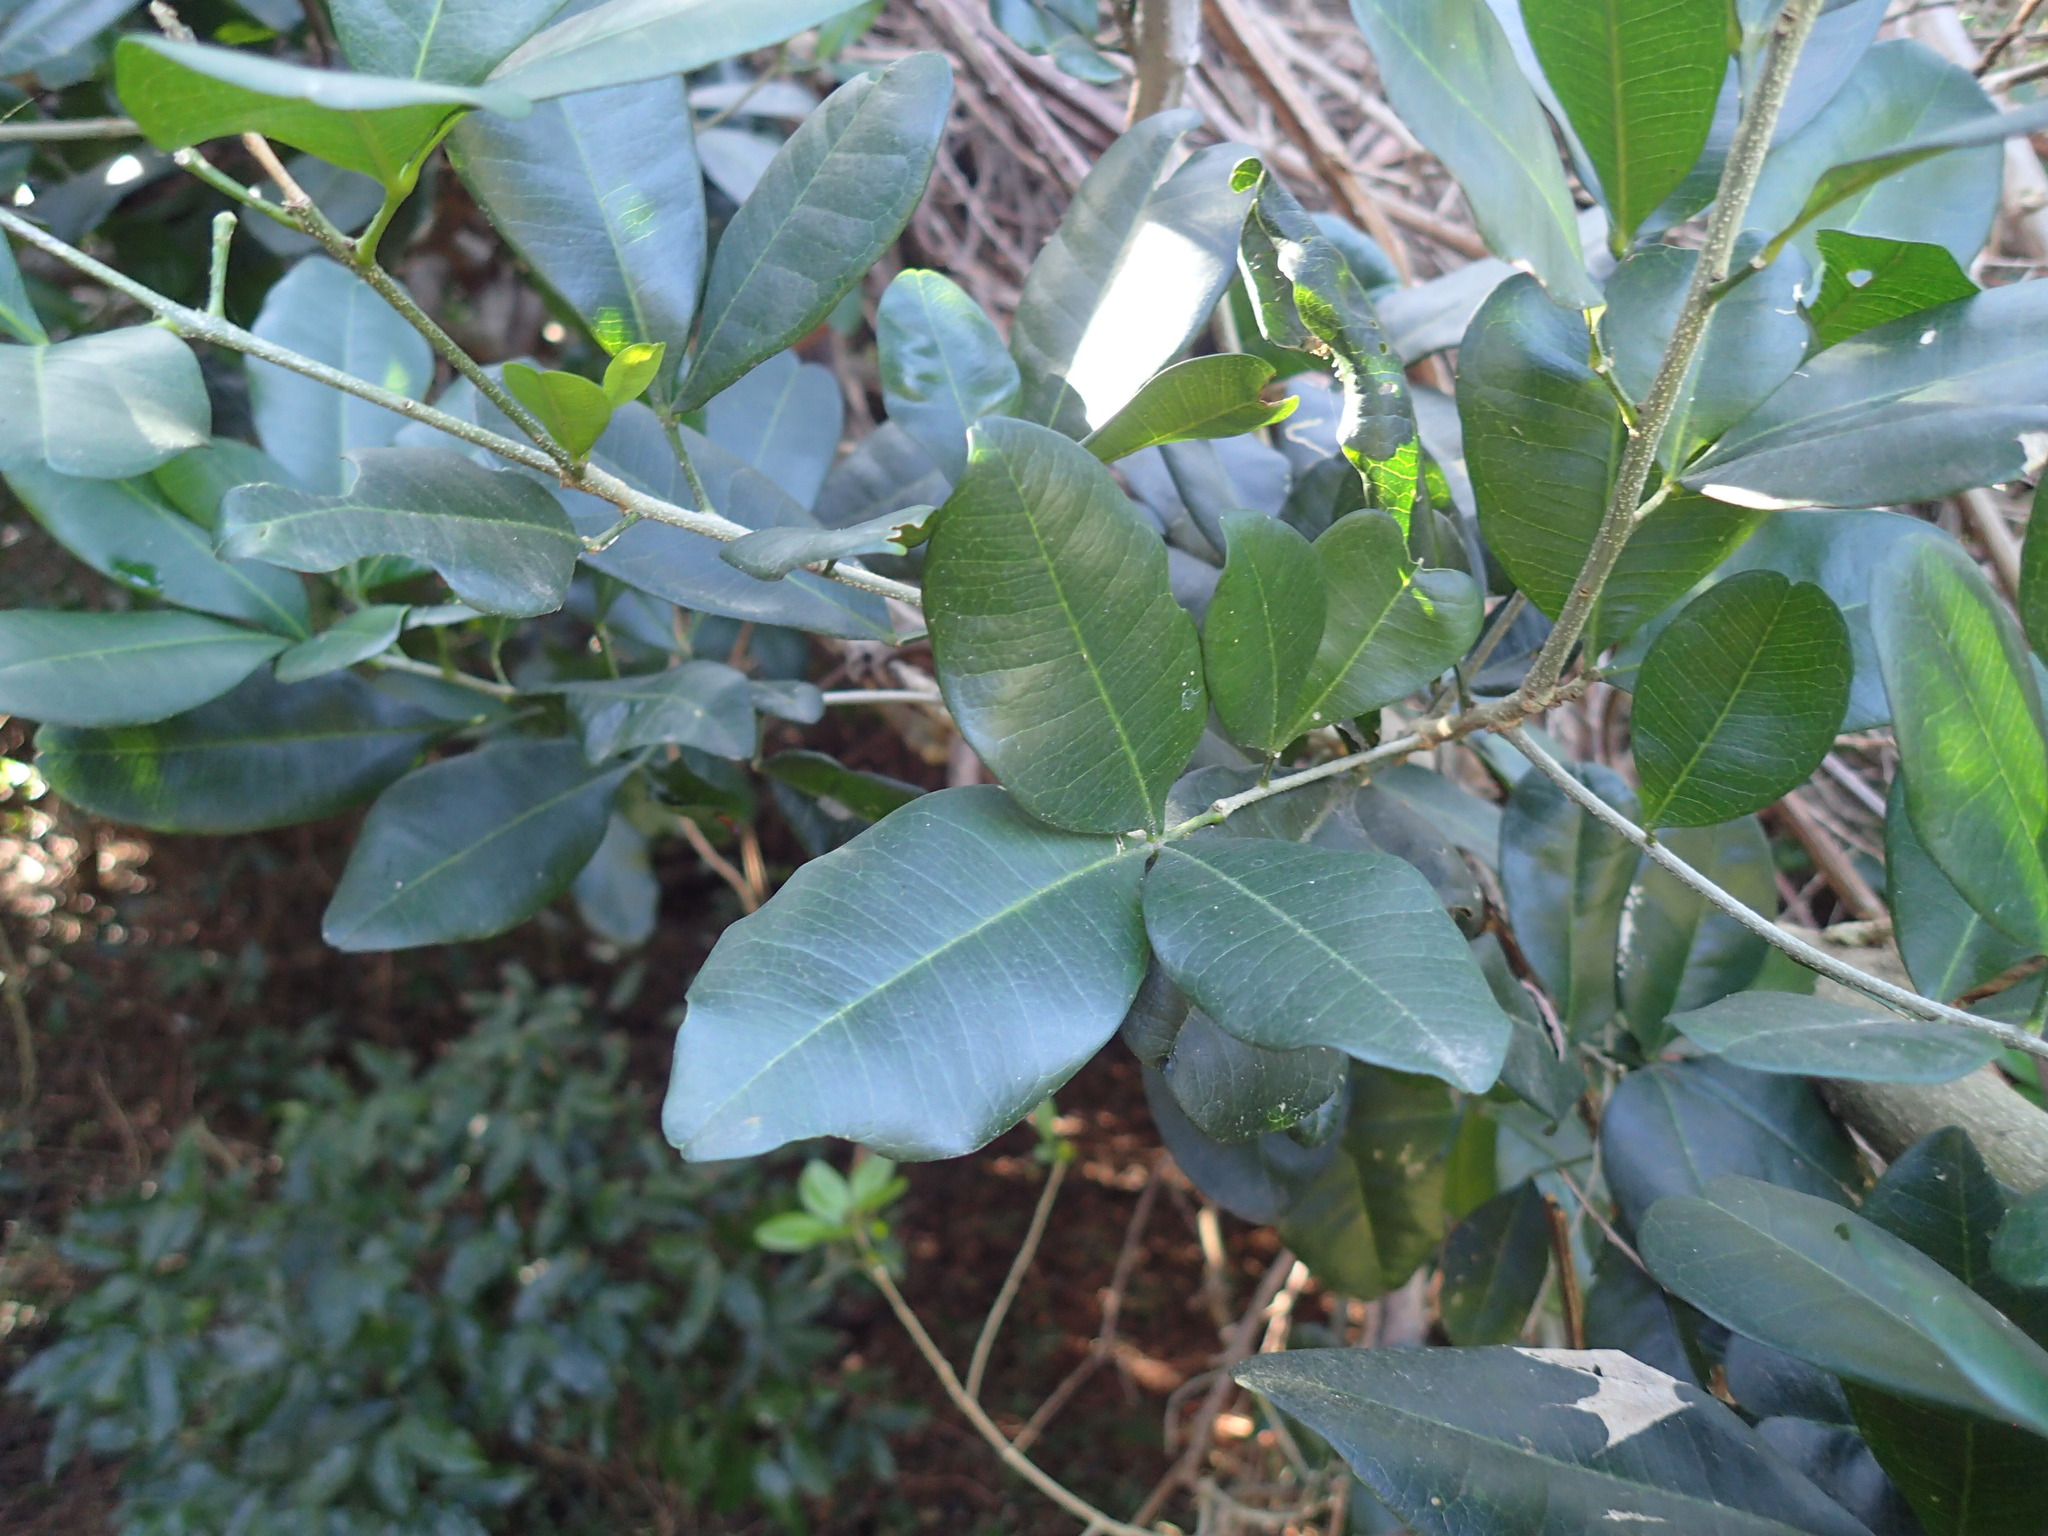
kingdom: Plantae
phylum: Tracheophyta
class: Magnoliopsida
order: Sapindales
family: Rutaceae
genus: Vepris
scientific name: Vepris trichocarpa
